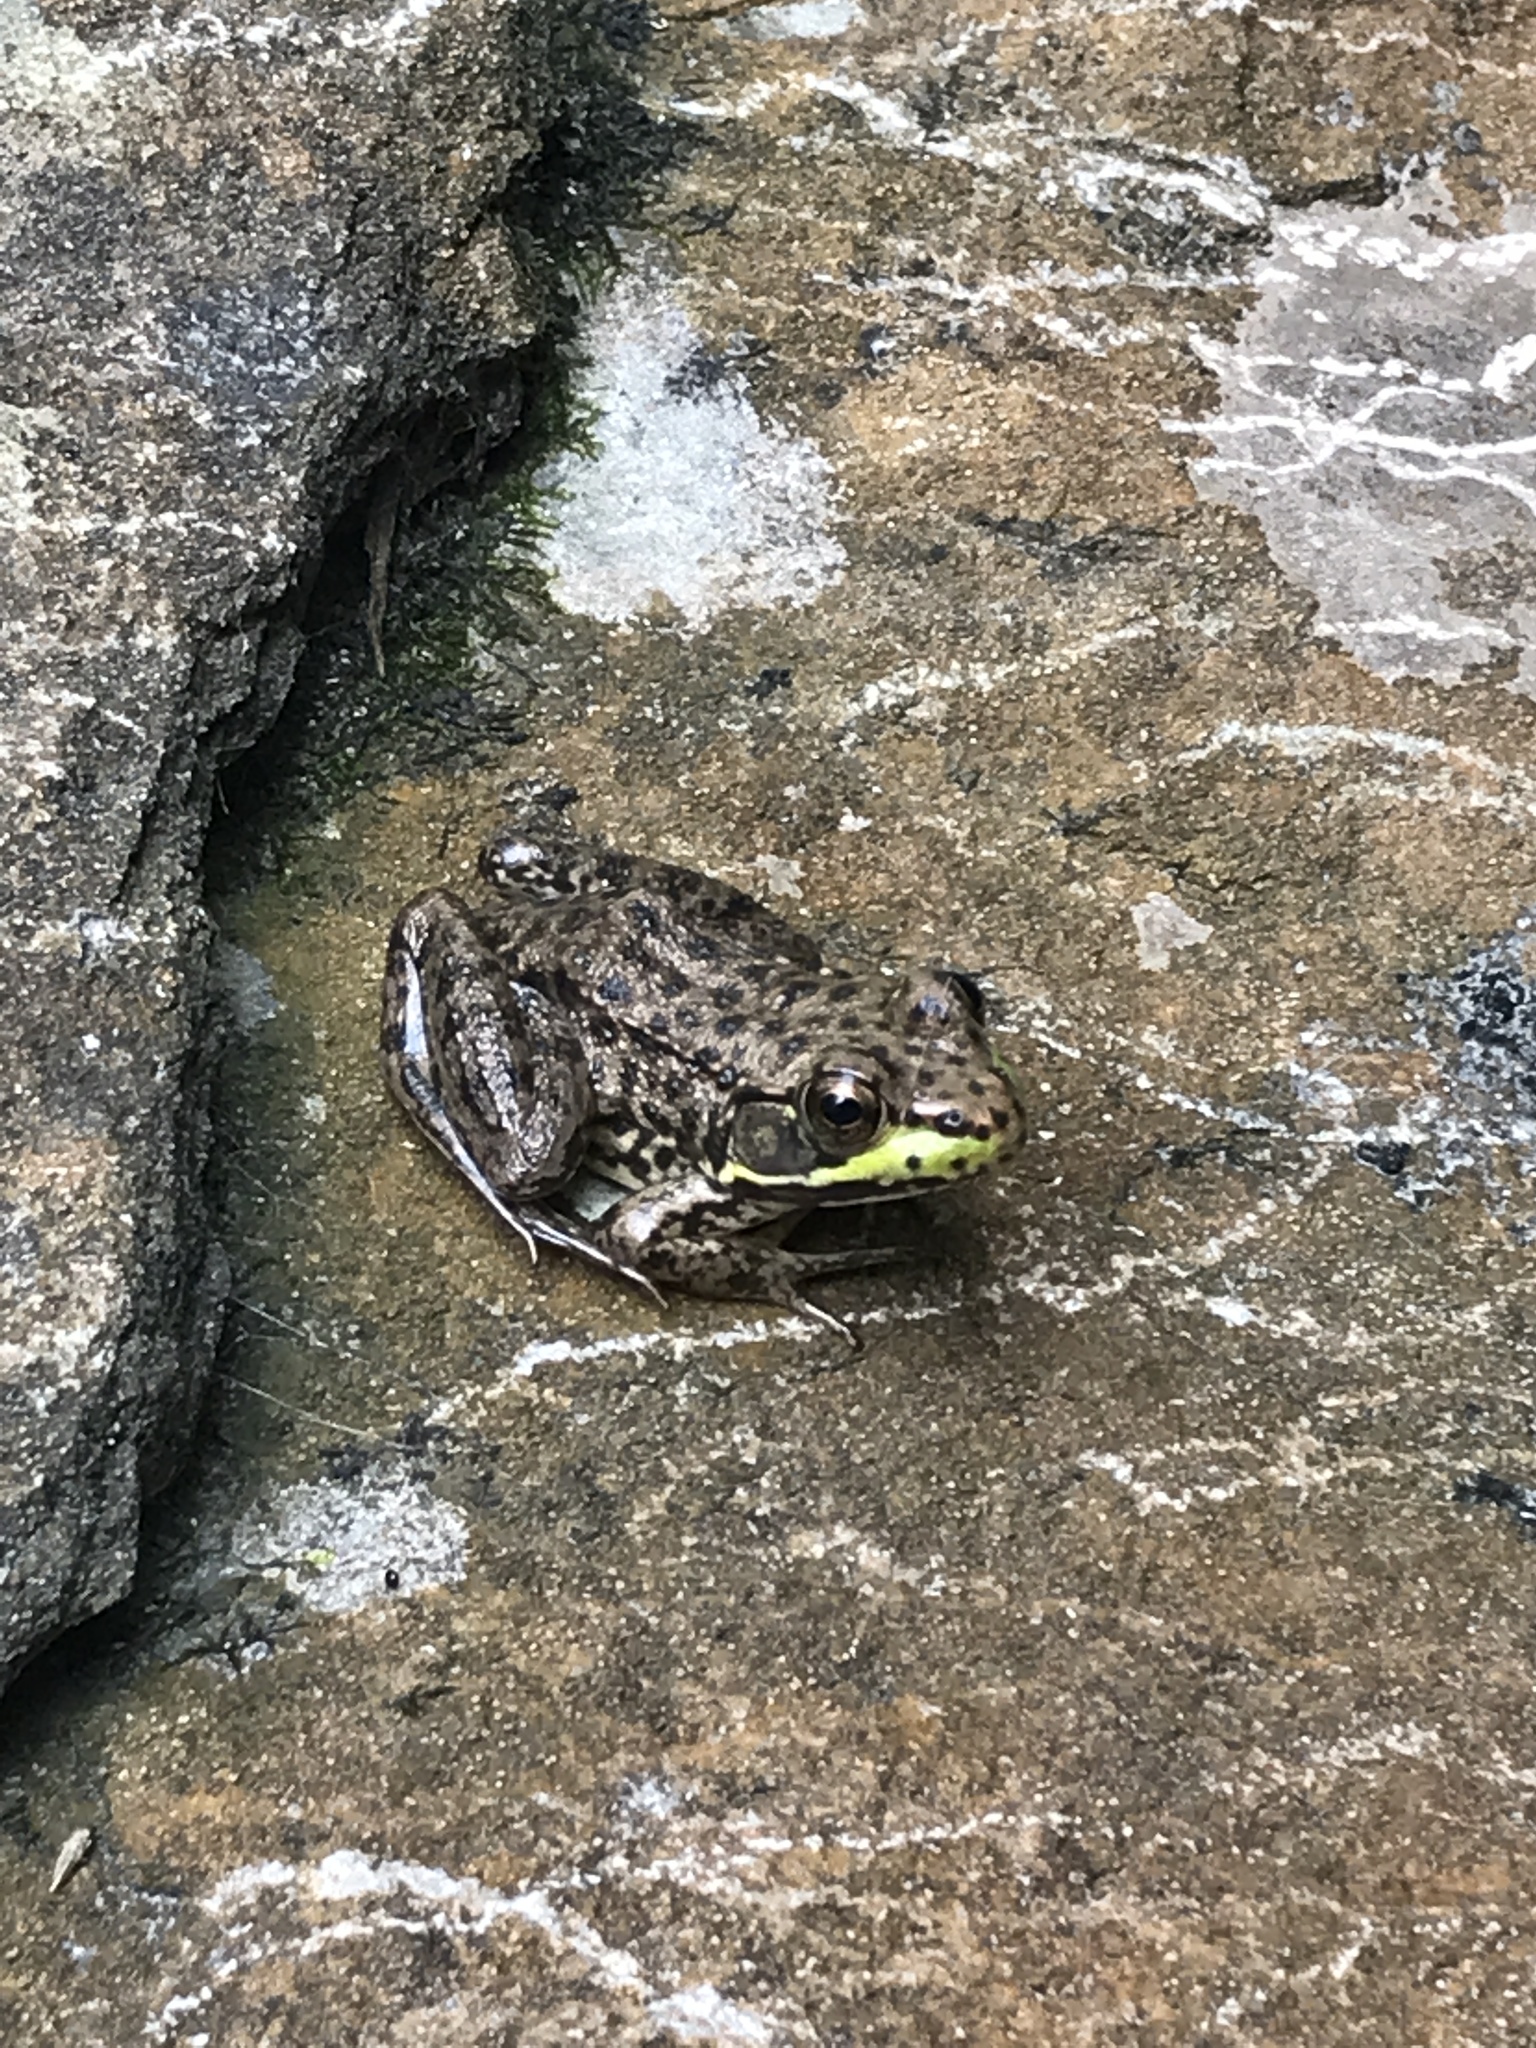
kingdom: Animalia
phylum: Chordata
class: Amphibia
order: Anura
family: Ranidae
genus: Lithobates
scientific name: Lithobates clamitans
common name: Green frog
